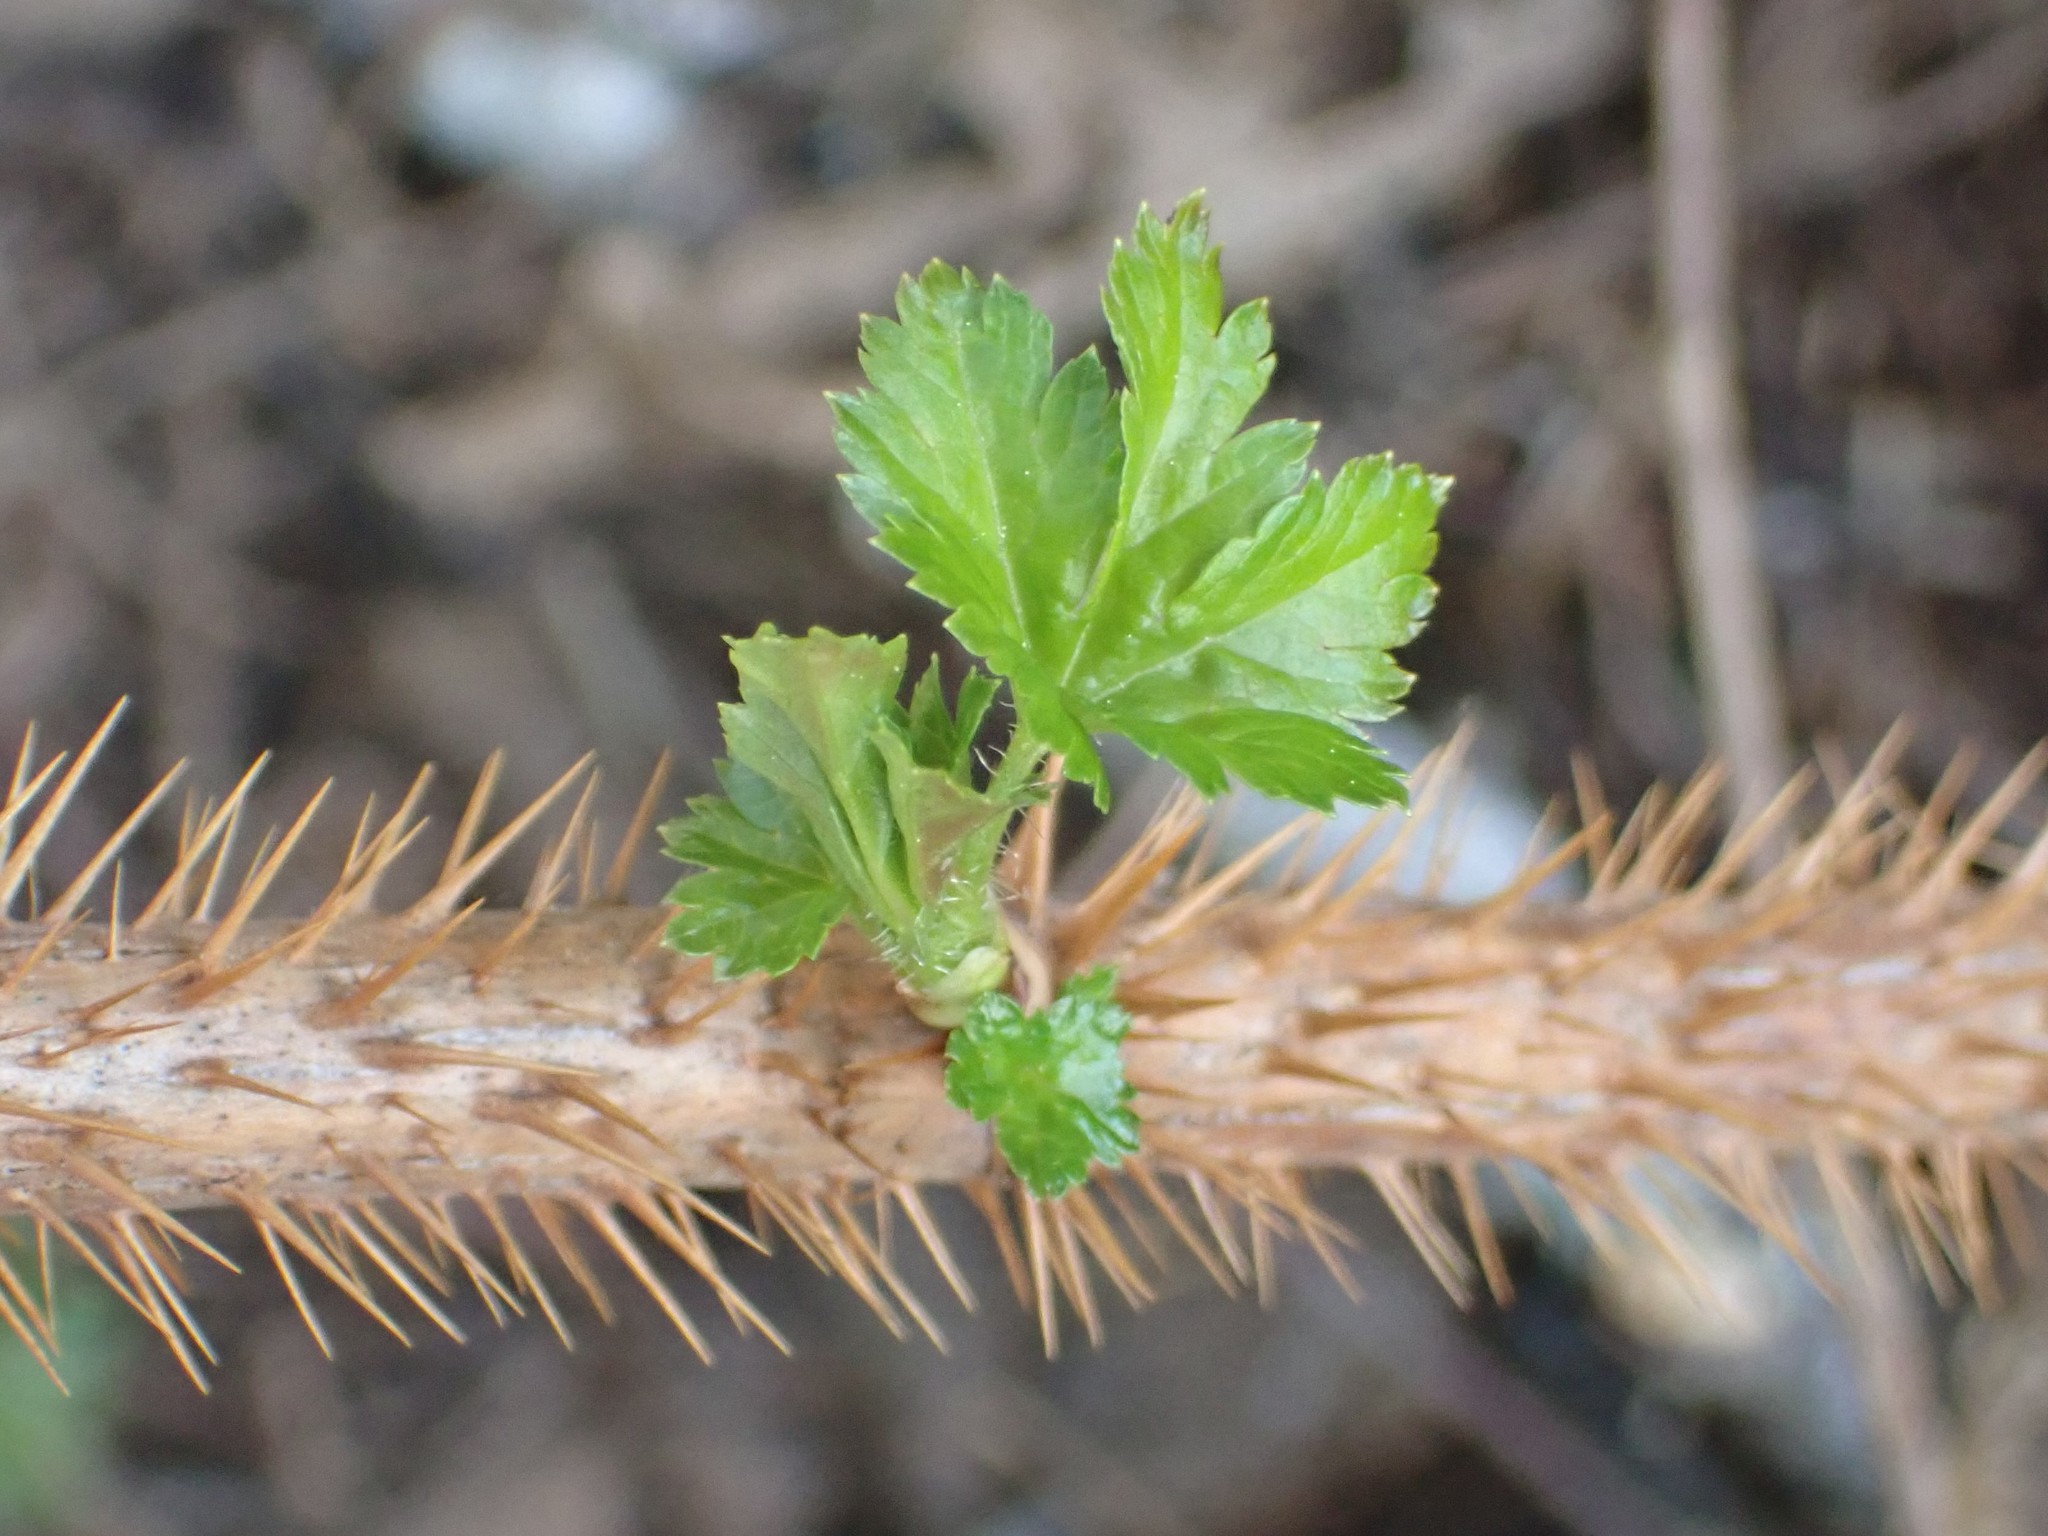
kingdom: Plantae
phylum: Tracheophyta
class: Magnoliopsida
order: Saxifragales
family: Grossulariaceae
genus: Ribes
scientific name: Ribes lacustre
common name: Black gooseberry
